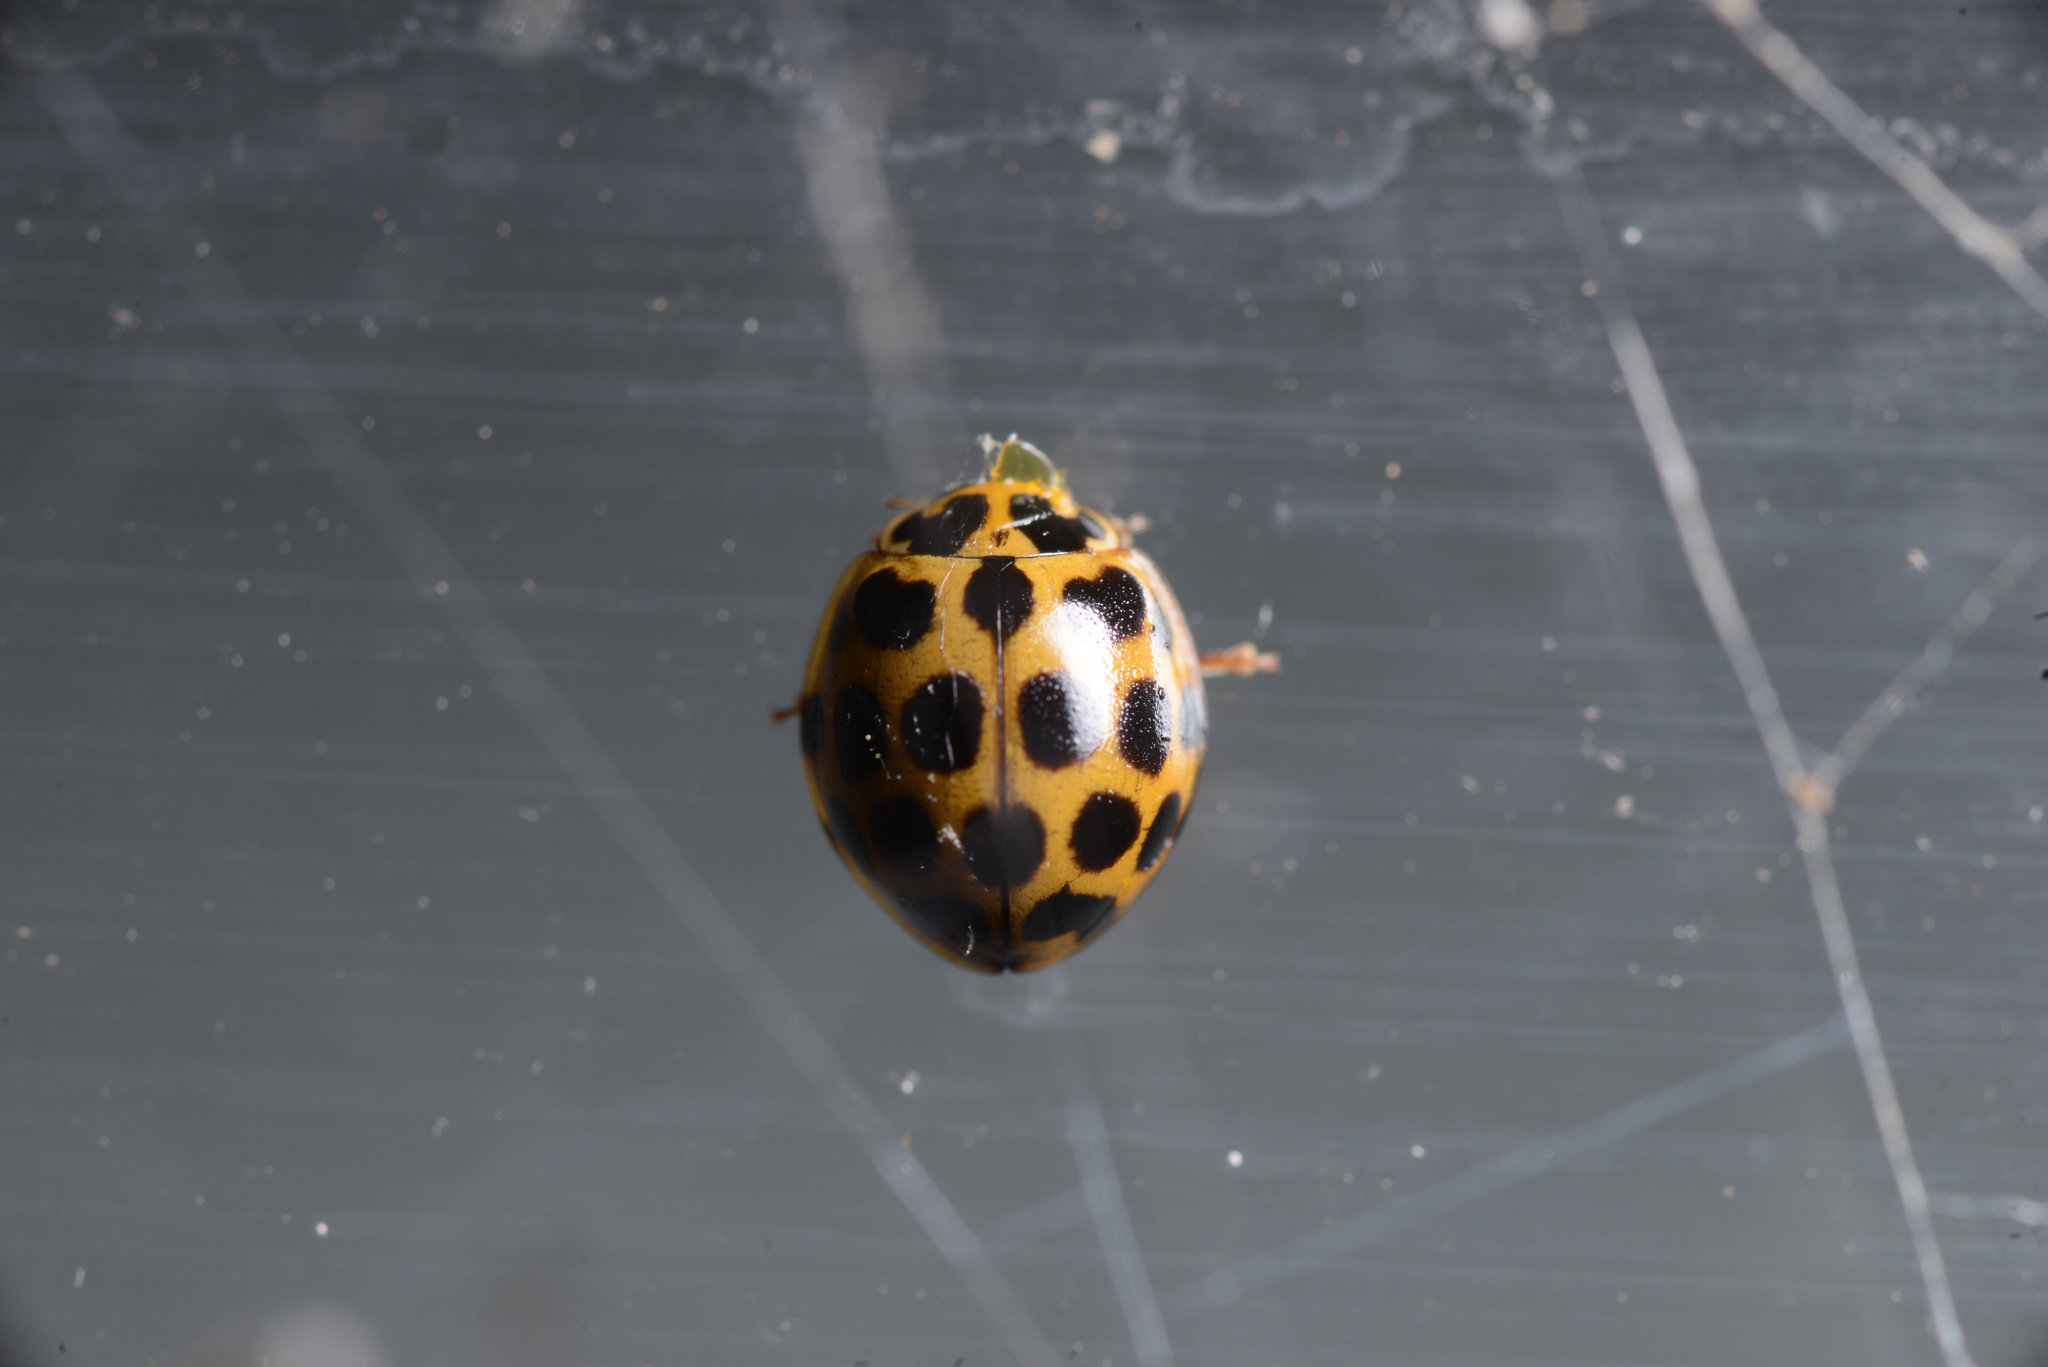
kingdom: Animalia
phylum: Arthropoda
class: Insecta
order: Coleoptera
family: Coccinellidae
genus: Harmonia
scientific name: Harmonia conformis
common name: Common spotted ladybird beetle
